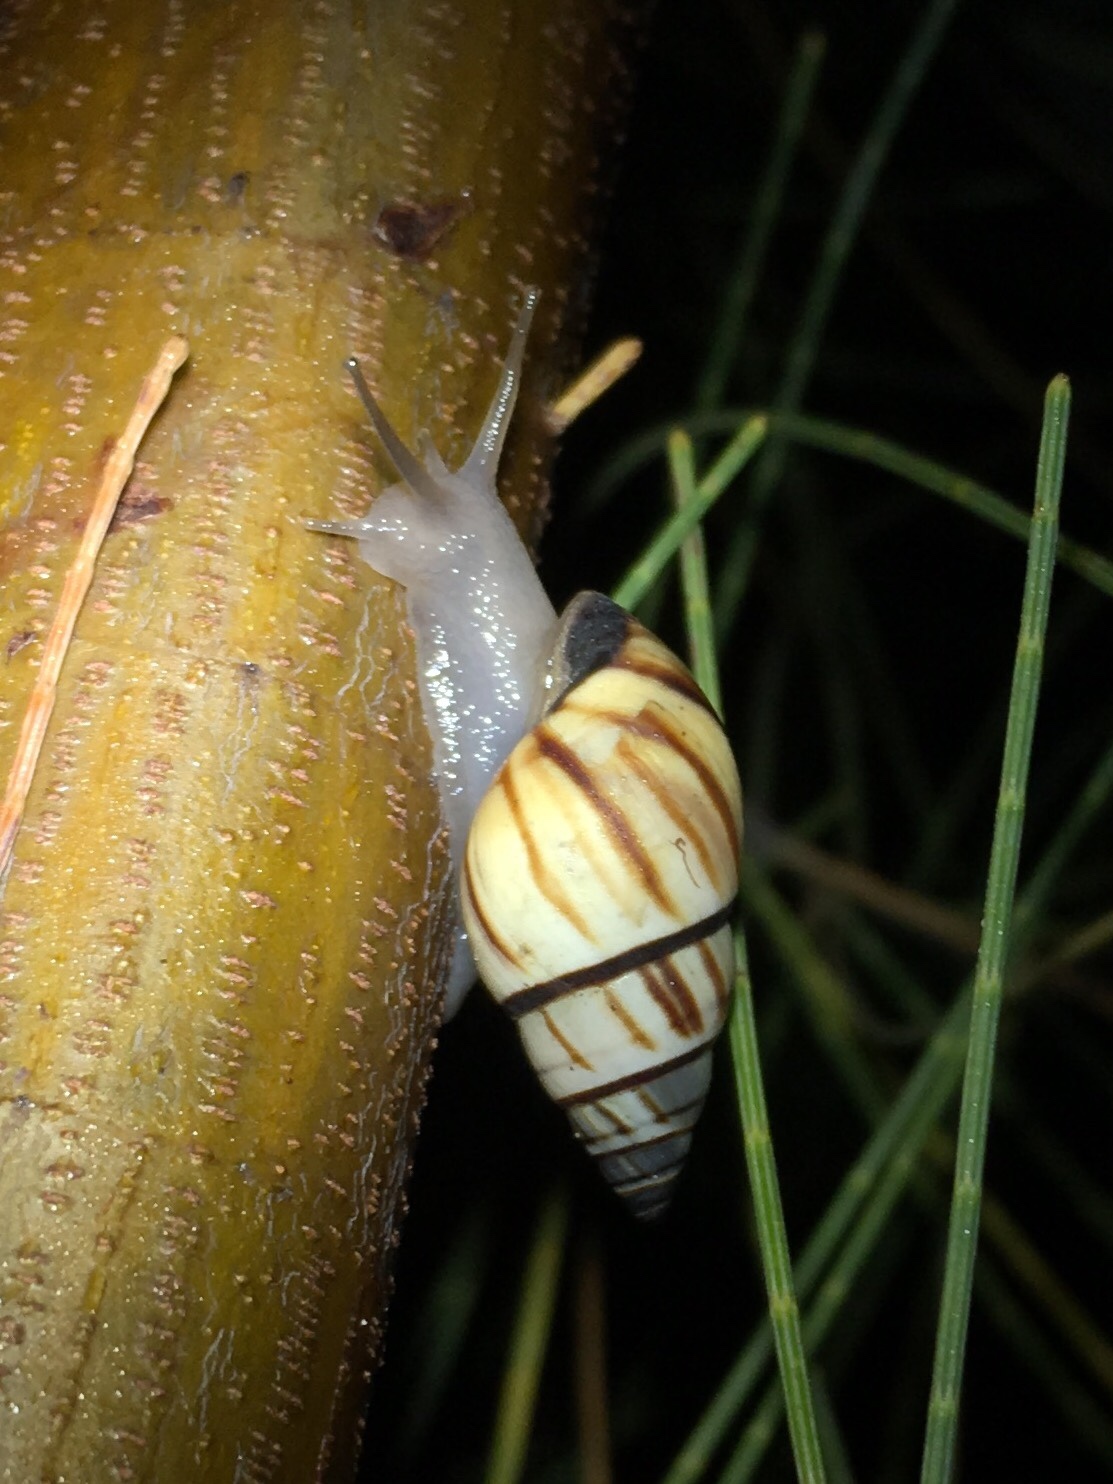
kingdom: Animalia
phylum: Mollusca
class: Gastropoda
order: Stylommatophora
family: Bulimulidae
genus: Drymaeus
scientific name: Drymaeus
